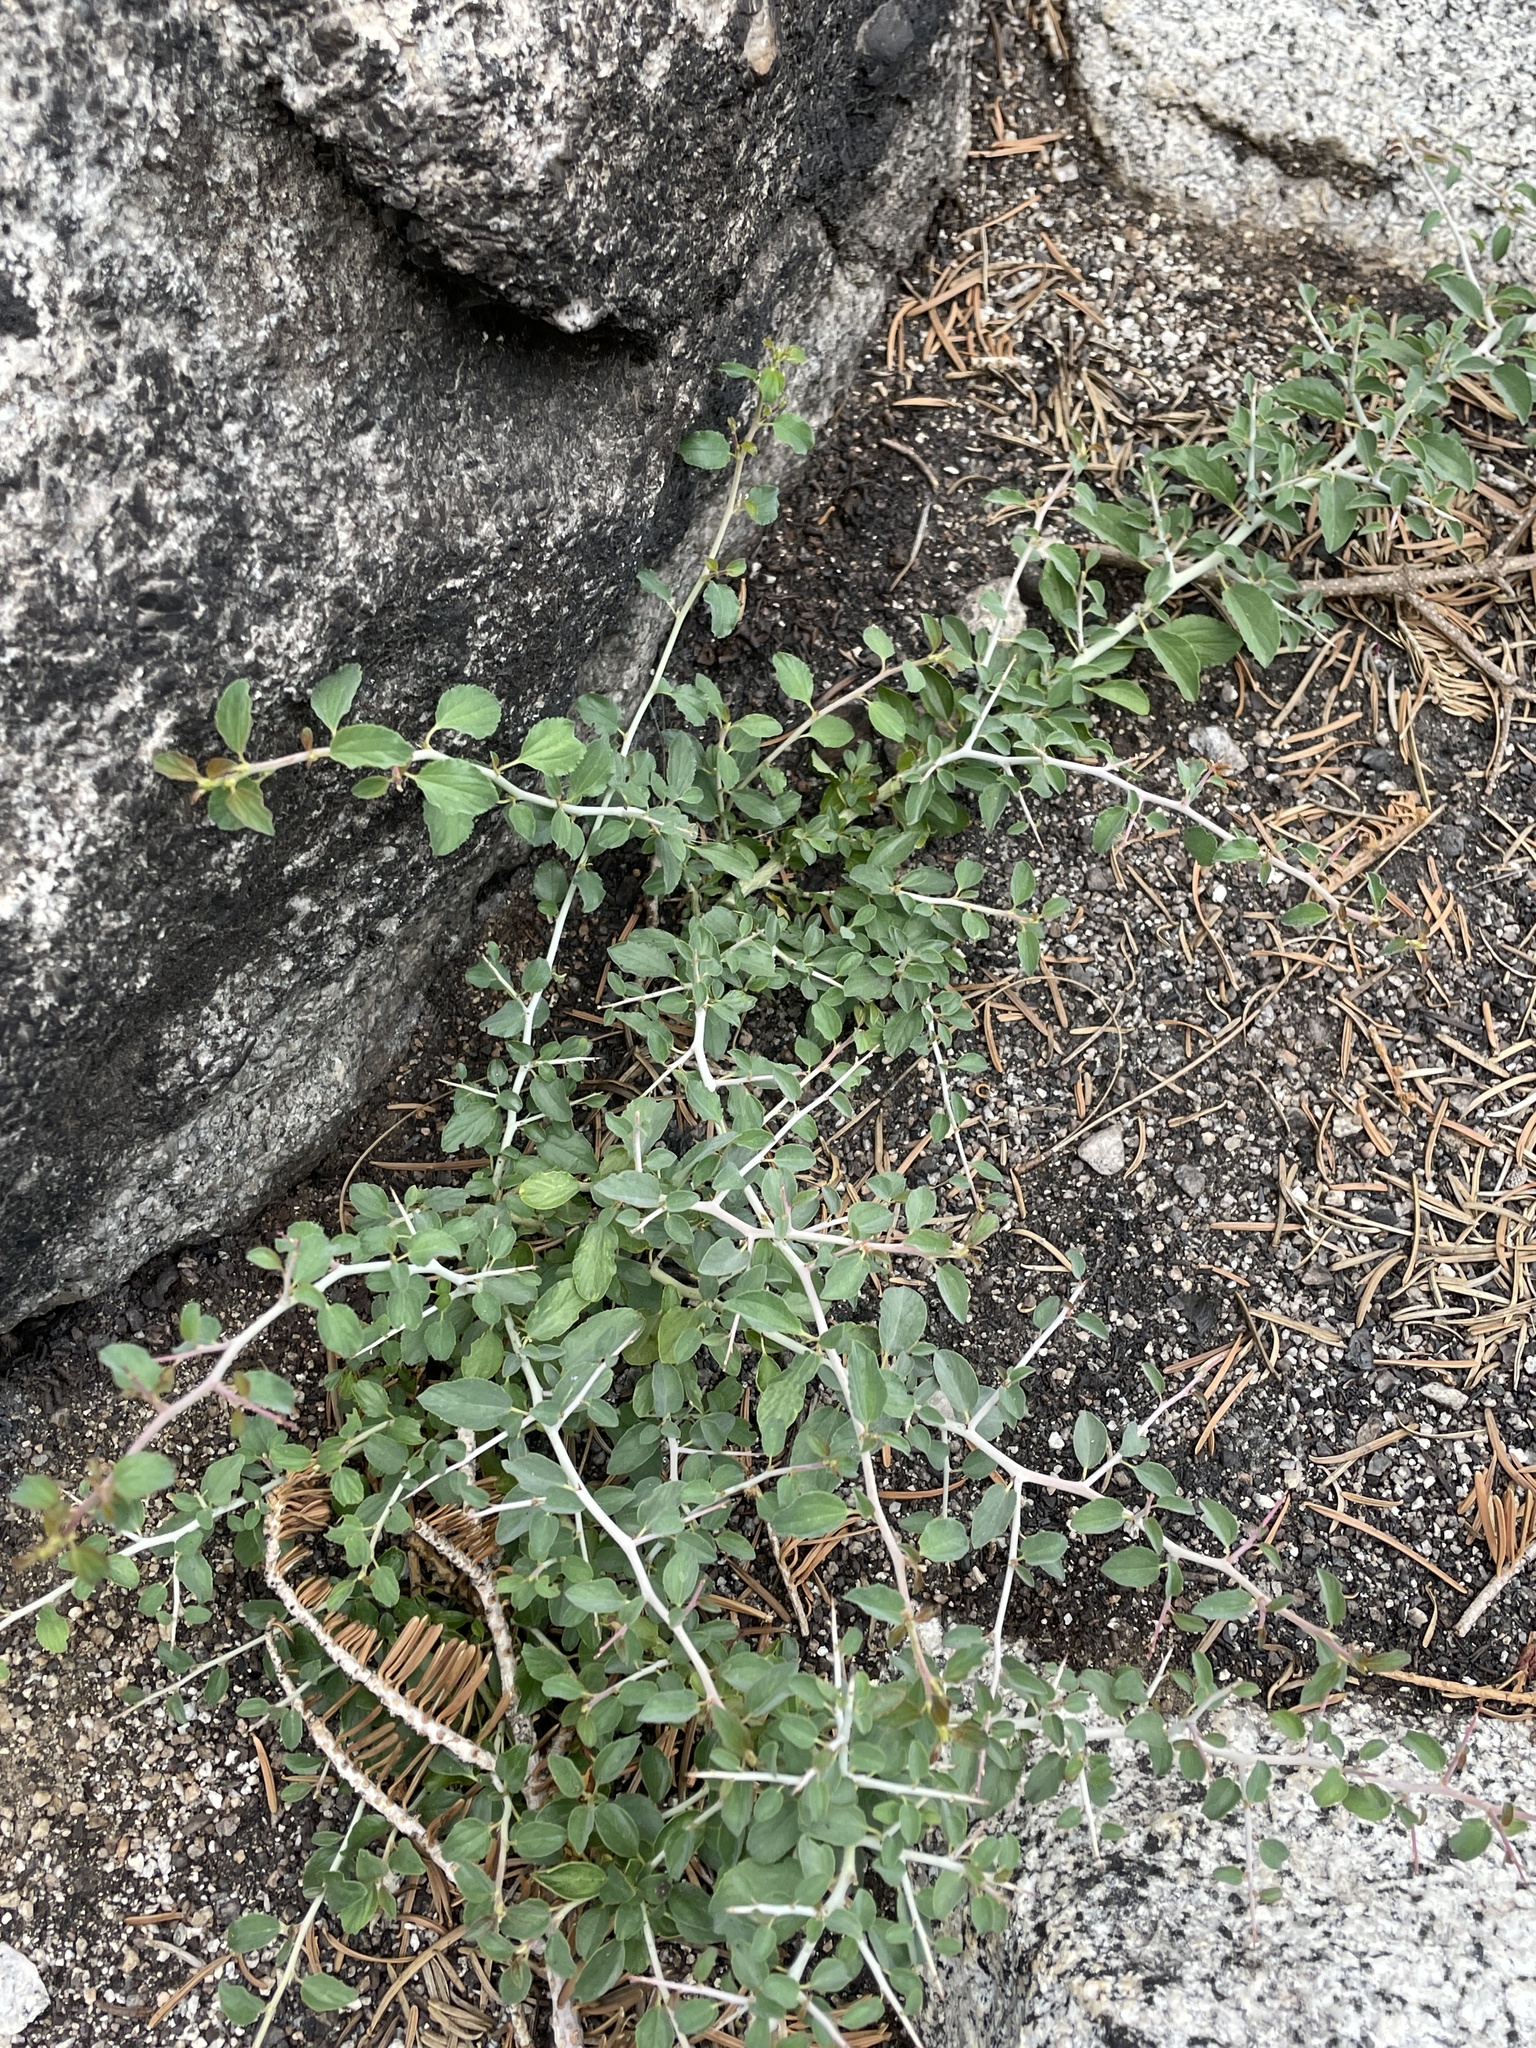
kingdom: Plantae
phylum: Tracheophyta
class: Magnoliopsida
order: Rosales
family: Rhamnaceae
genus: Ceanothus
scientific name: Ceanothus cordulatus
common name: Mountain whitethorn
